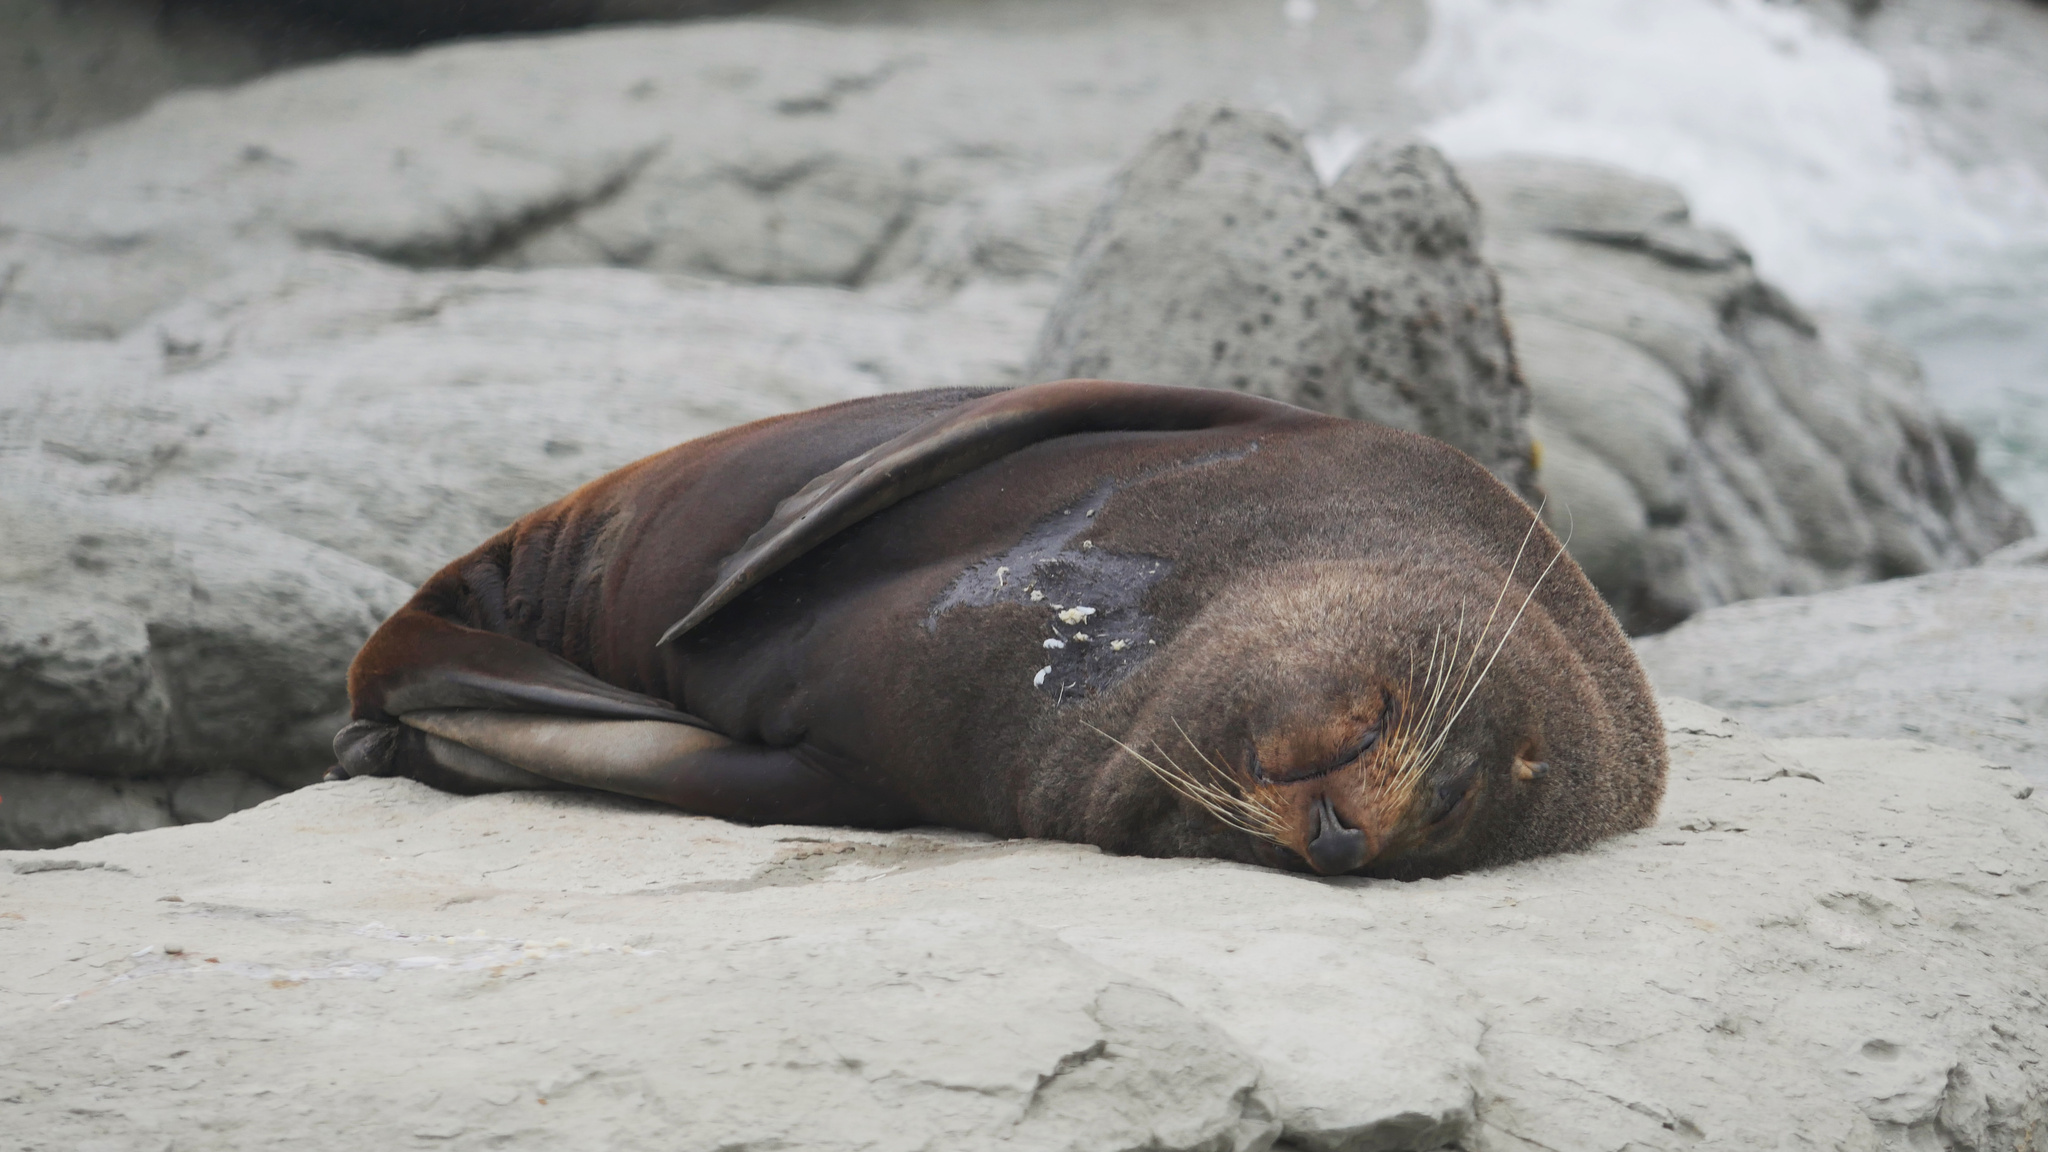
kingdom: Animalia
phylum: Chordata
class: Mammalia
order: Carnivora
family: Otariidae
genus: Arctocephalus
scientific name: Arctocephalus forsteri
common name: New zealand fur seal
